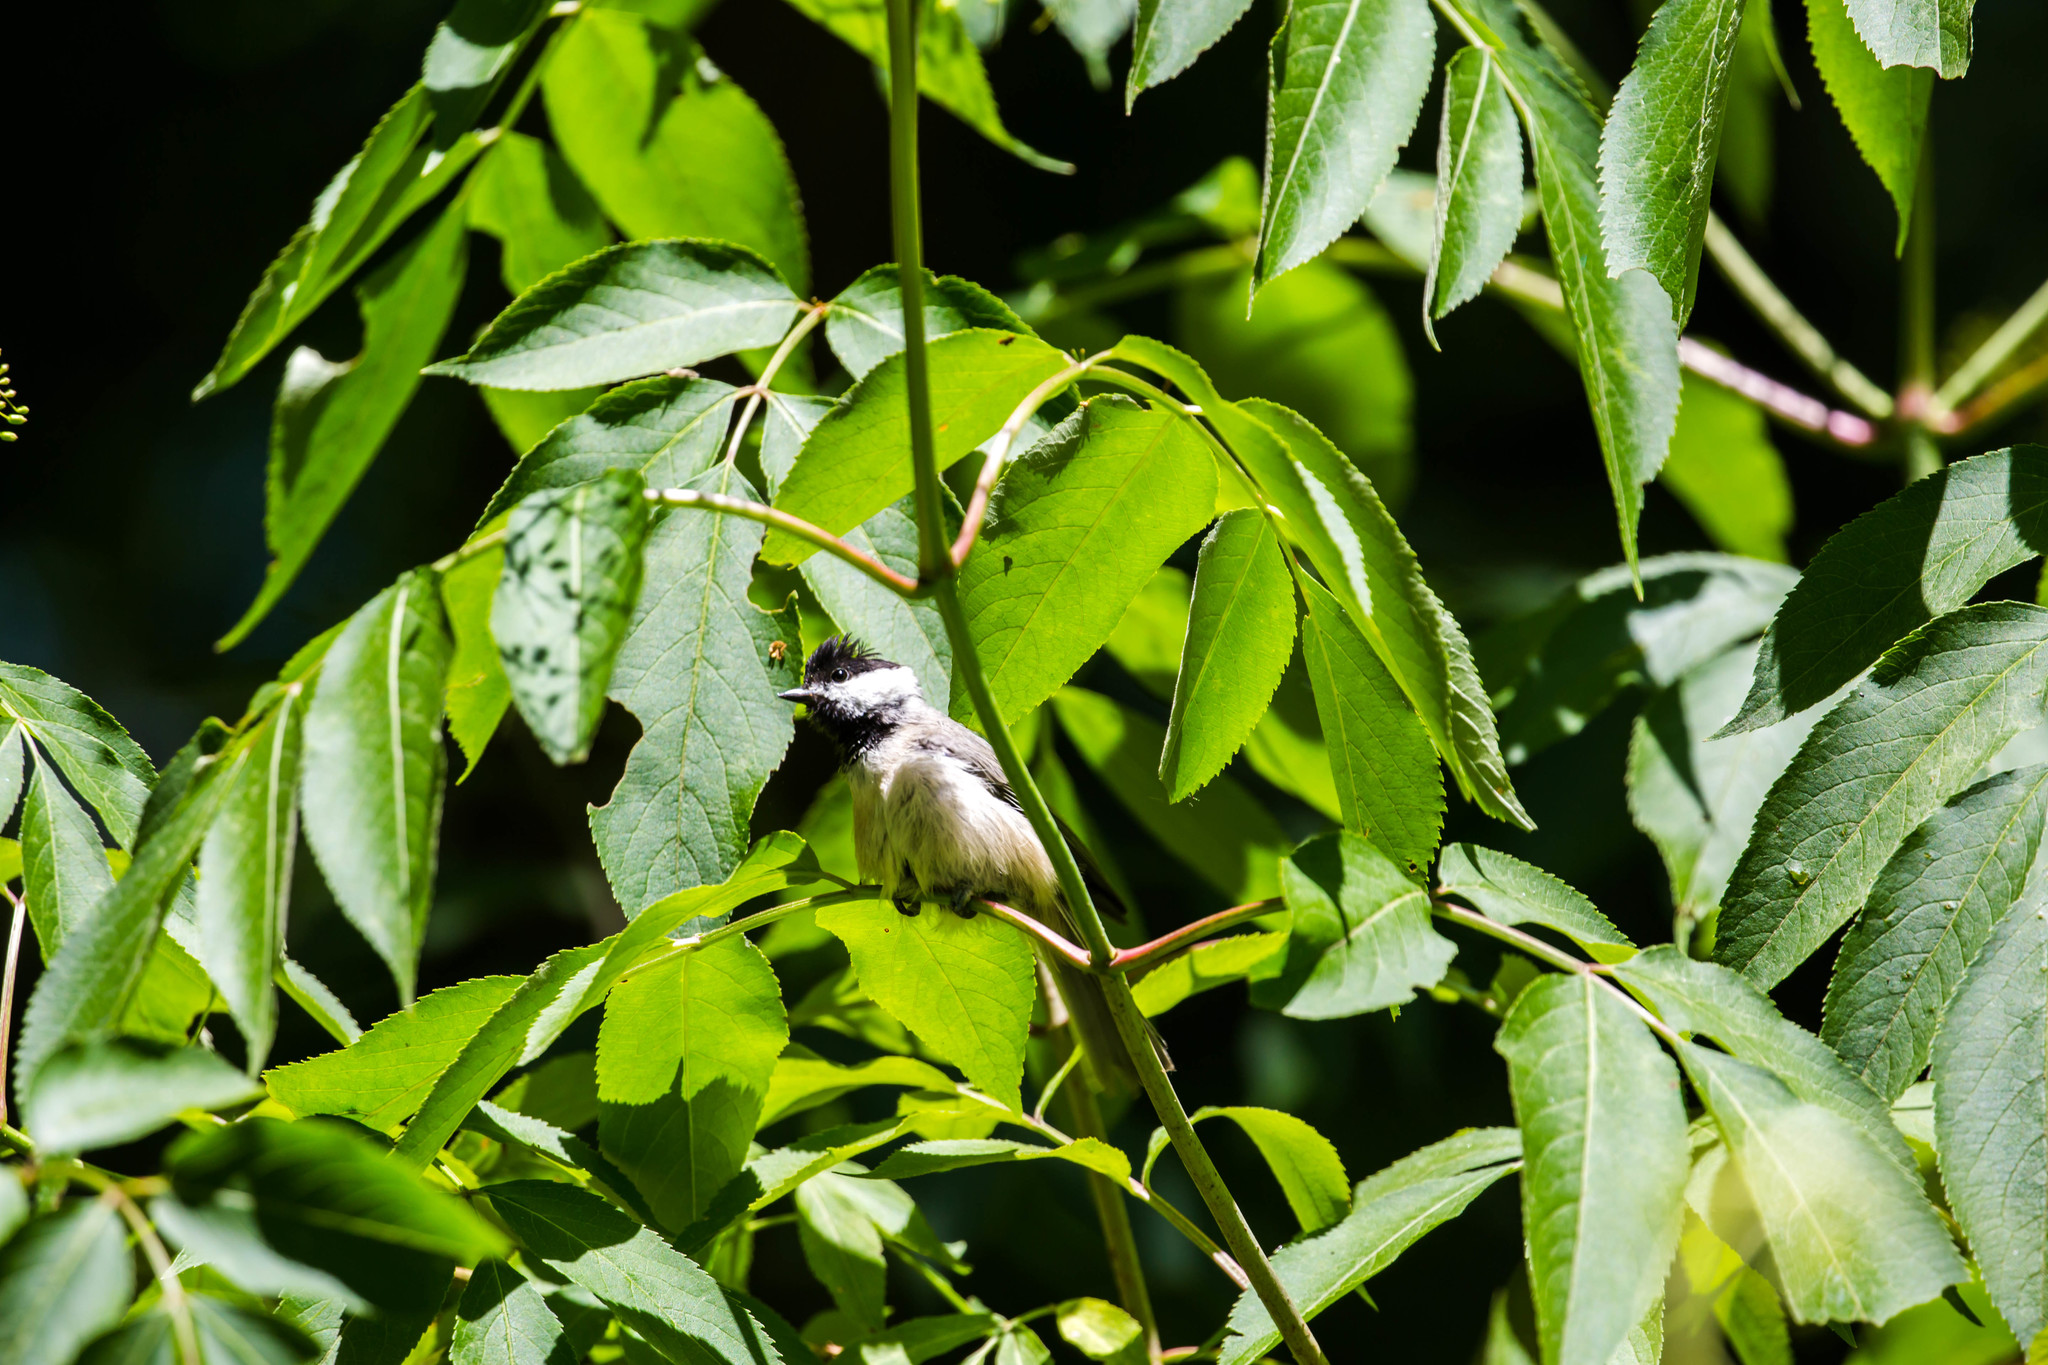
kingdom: Animalia
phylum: Chordata
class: Aves
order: Passeriformes
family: Paridae
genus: Poecile
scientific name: Poecile carolinensis
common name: Carolina chickadee
